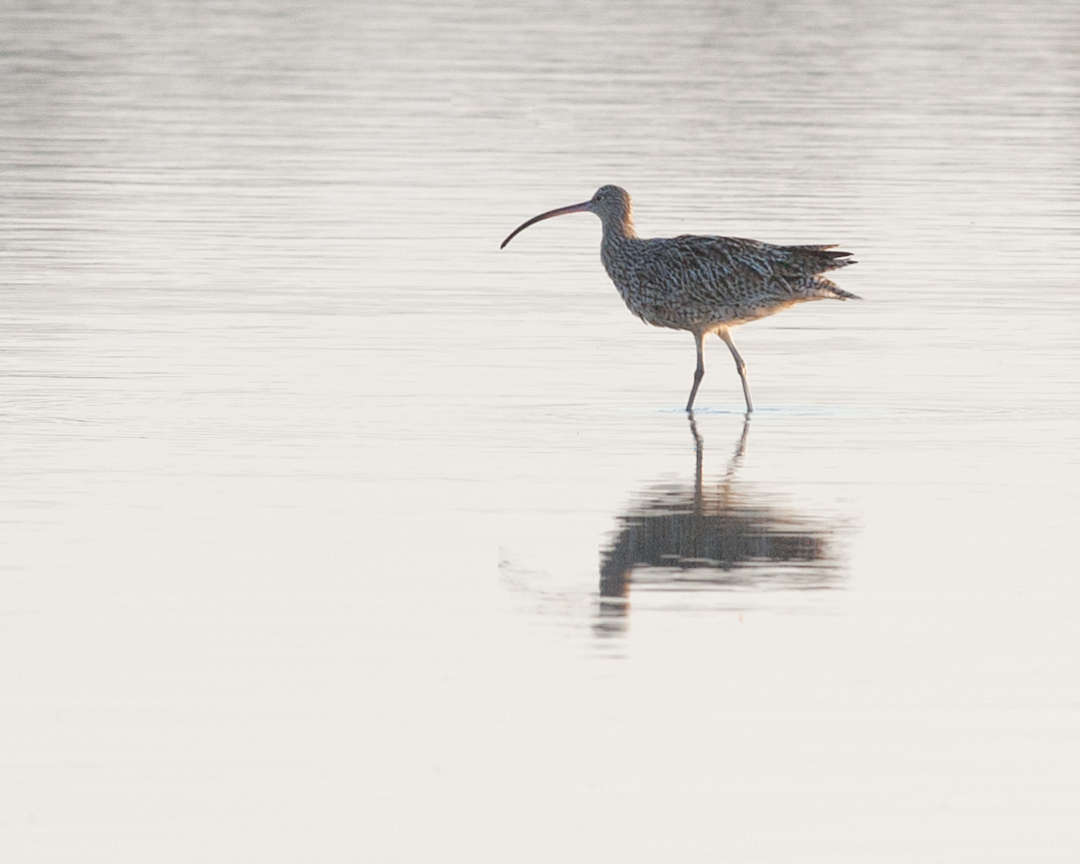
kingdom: Animalia
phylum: Chordata
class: Aves
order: Charadriiformes
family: Scolopacidae
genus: Numenius
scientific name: Numenius madagascariensis
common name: Far eastern curlew
